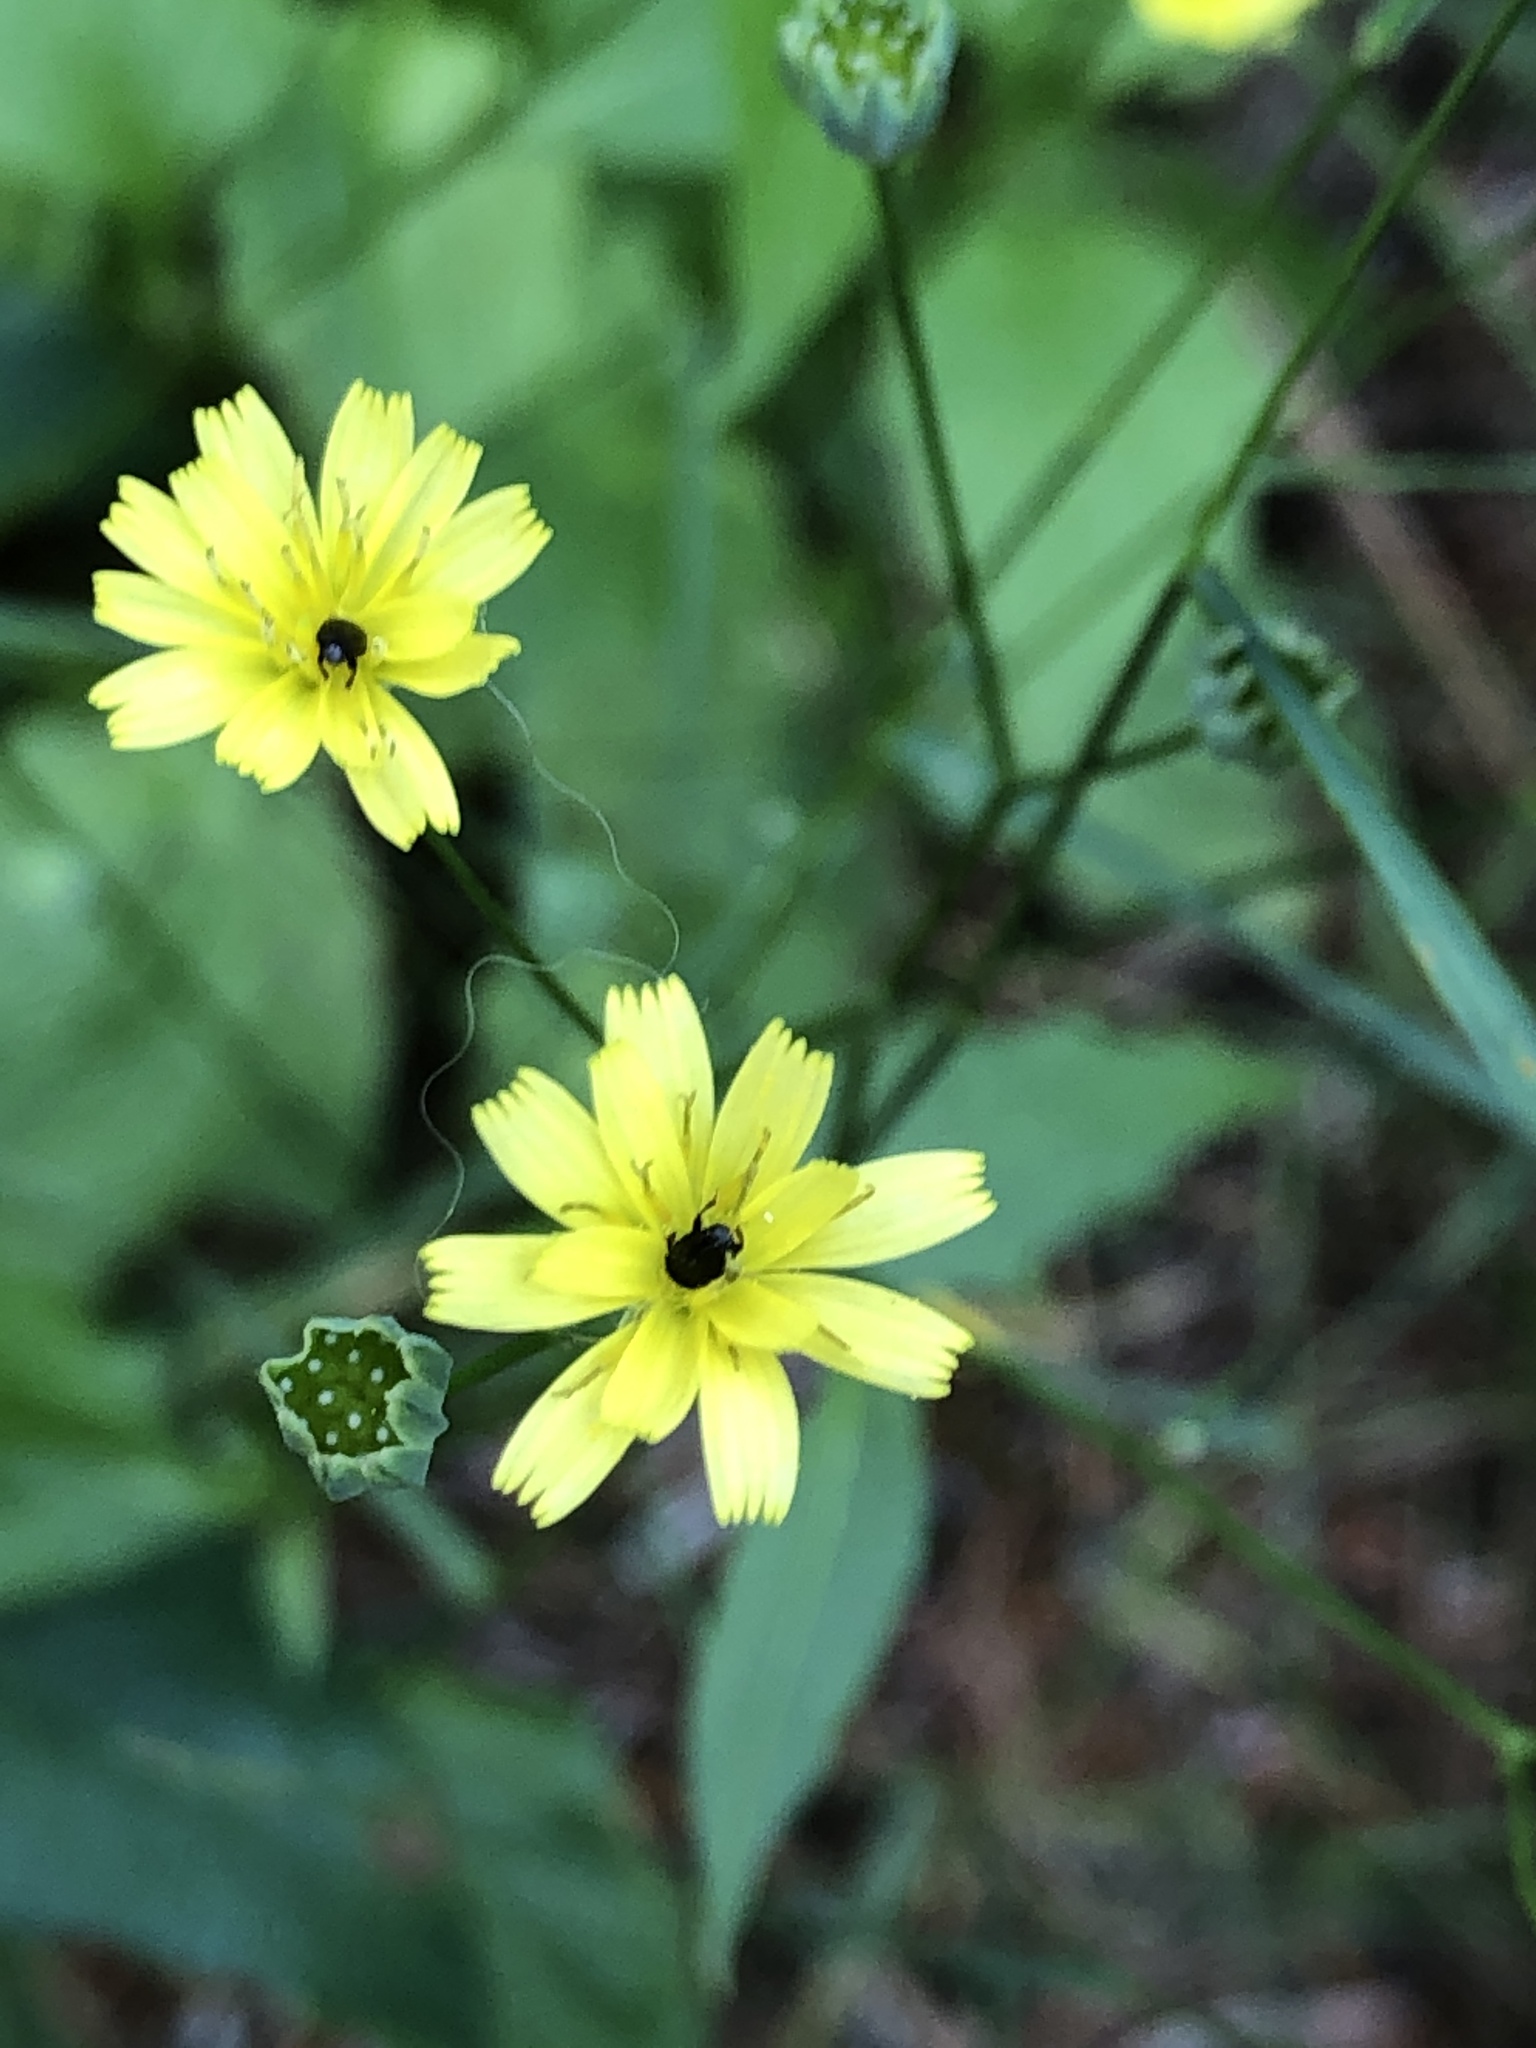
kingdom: Plantae
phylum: Tracheophyta
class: Magnoliopsida
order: Asterales
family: Asteraceae
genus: Lapsana
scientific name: Lapsana communis
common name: Nipplewort
